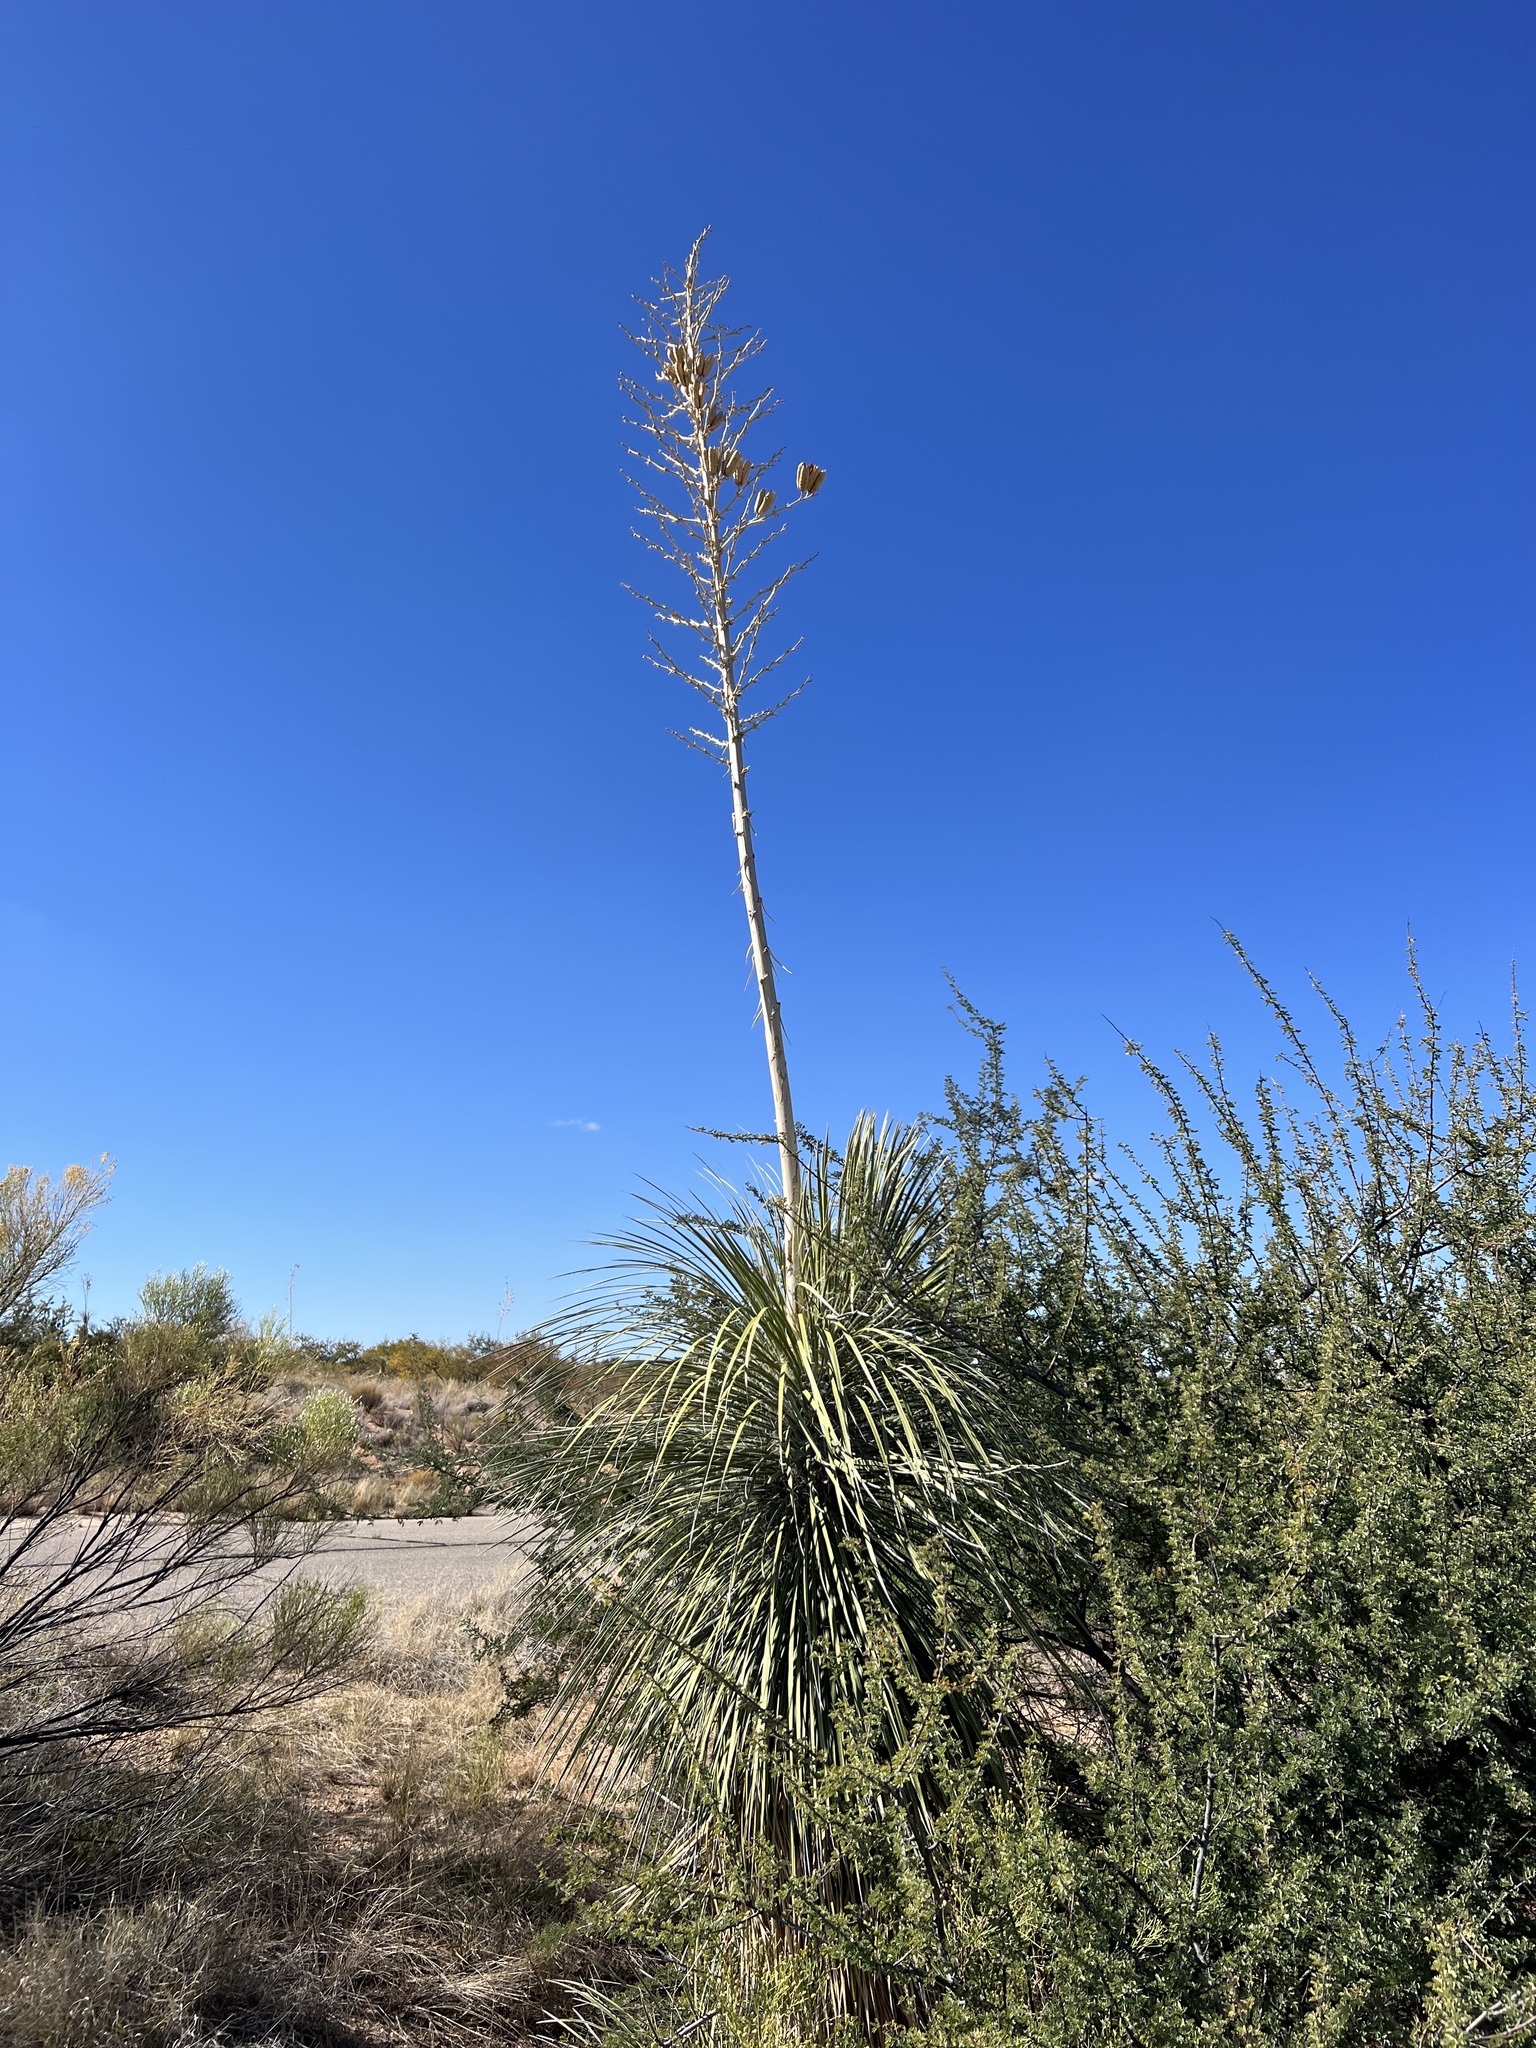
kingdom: Plantae
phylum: Tracheophyta
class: Liliopsida
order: Asparagales
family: Asparagaceae
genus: Yucca
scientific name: Yucca elata
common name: Palmella
